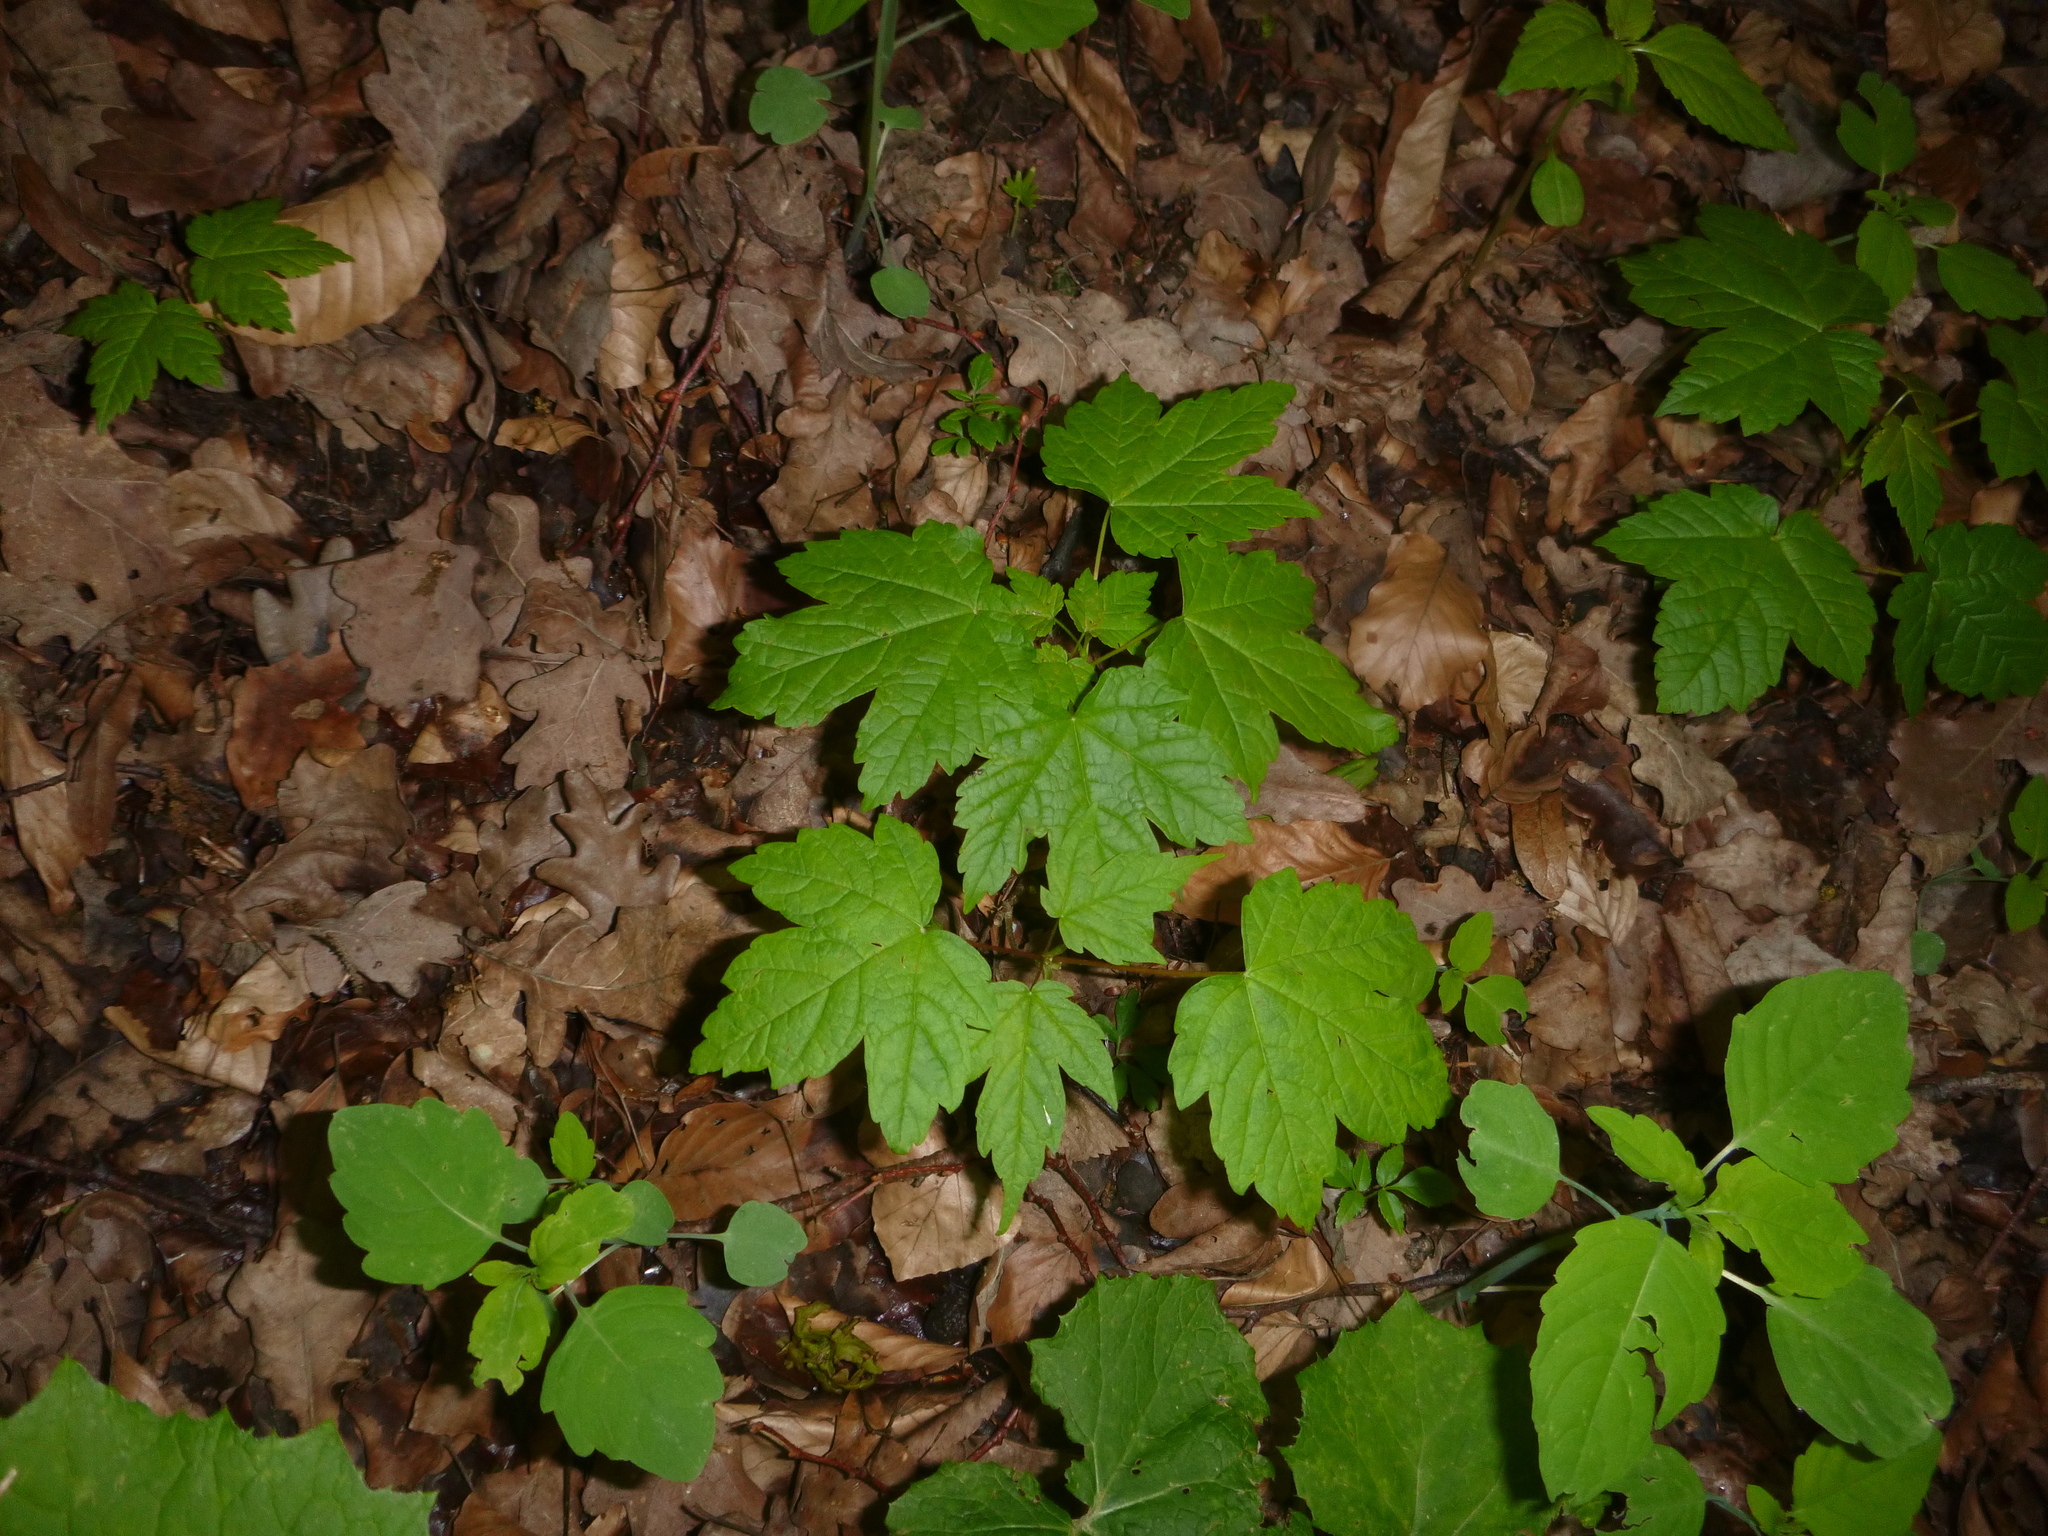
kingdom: Plantae
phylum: Tracheophyta
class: Magnoliopsida
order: Sapindales
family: Sapindaceae
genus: Acer
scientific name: Acer pseudoplatanus
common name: Sycamore
